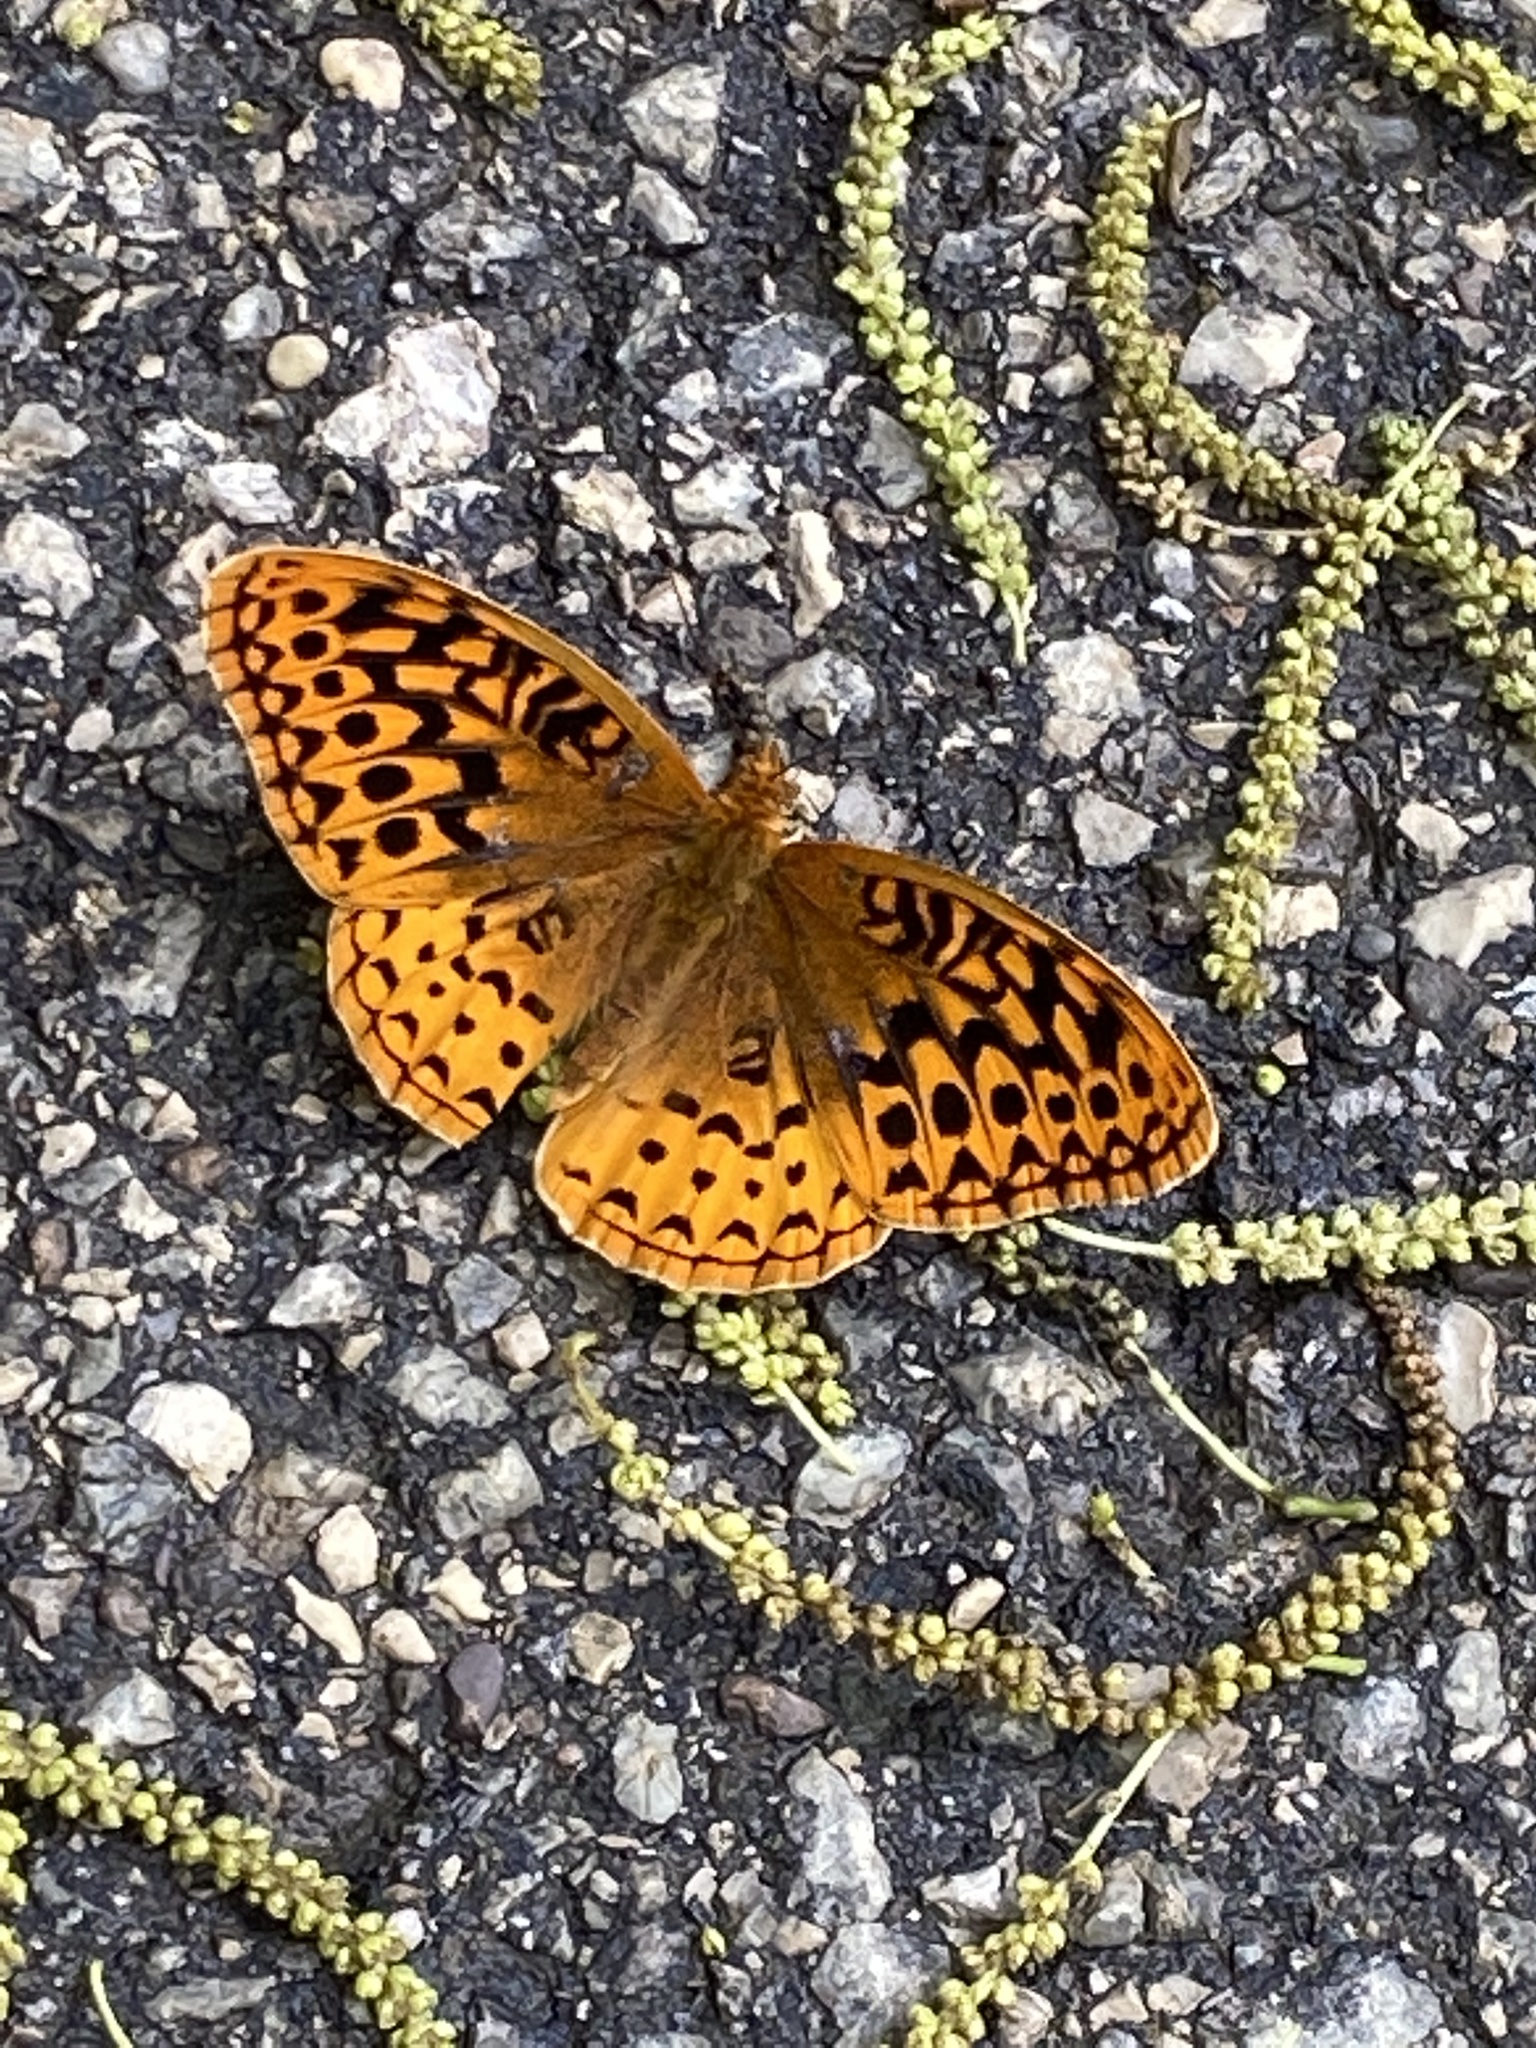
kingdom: Animalia
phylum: Arthropoda
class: Insecta
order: Lepidoptera
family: Nymphalidae
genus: Speyeria
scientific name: Speyeria cybele
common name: Great spangled fritillary
